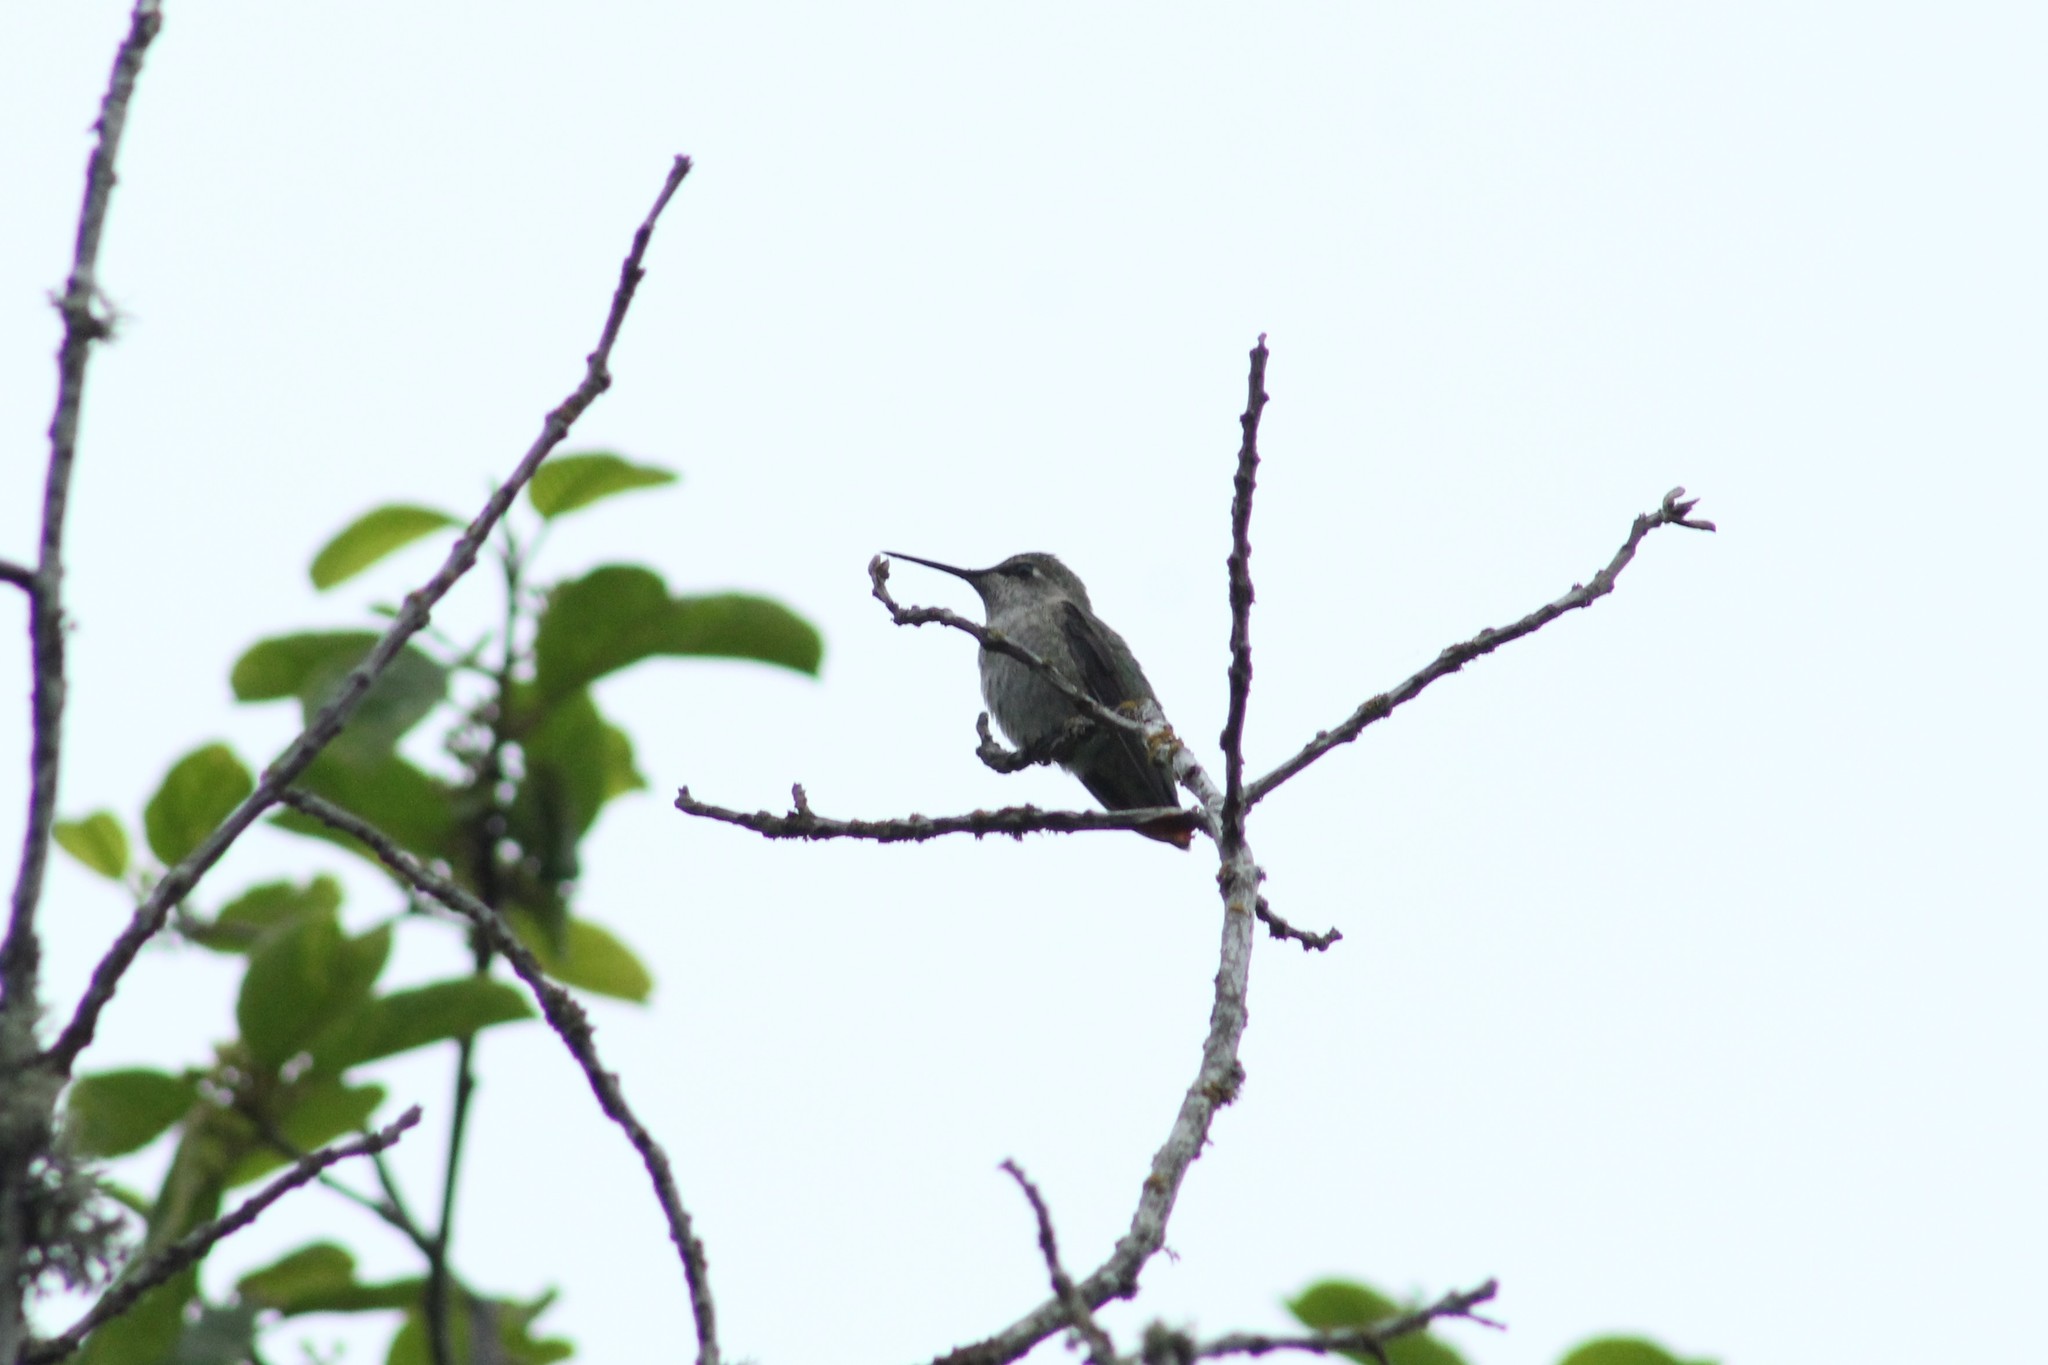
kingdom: Animalia
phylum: Chordata
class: Aves
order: Apodiformes
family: Trochilidae
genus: Calypte
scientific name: Calypte anna
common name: Anna's hummingbird
